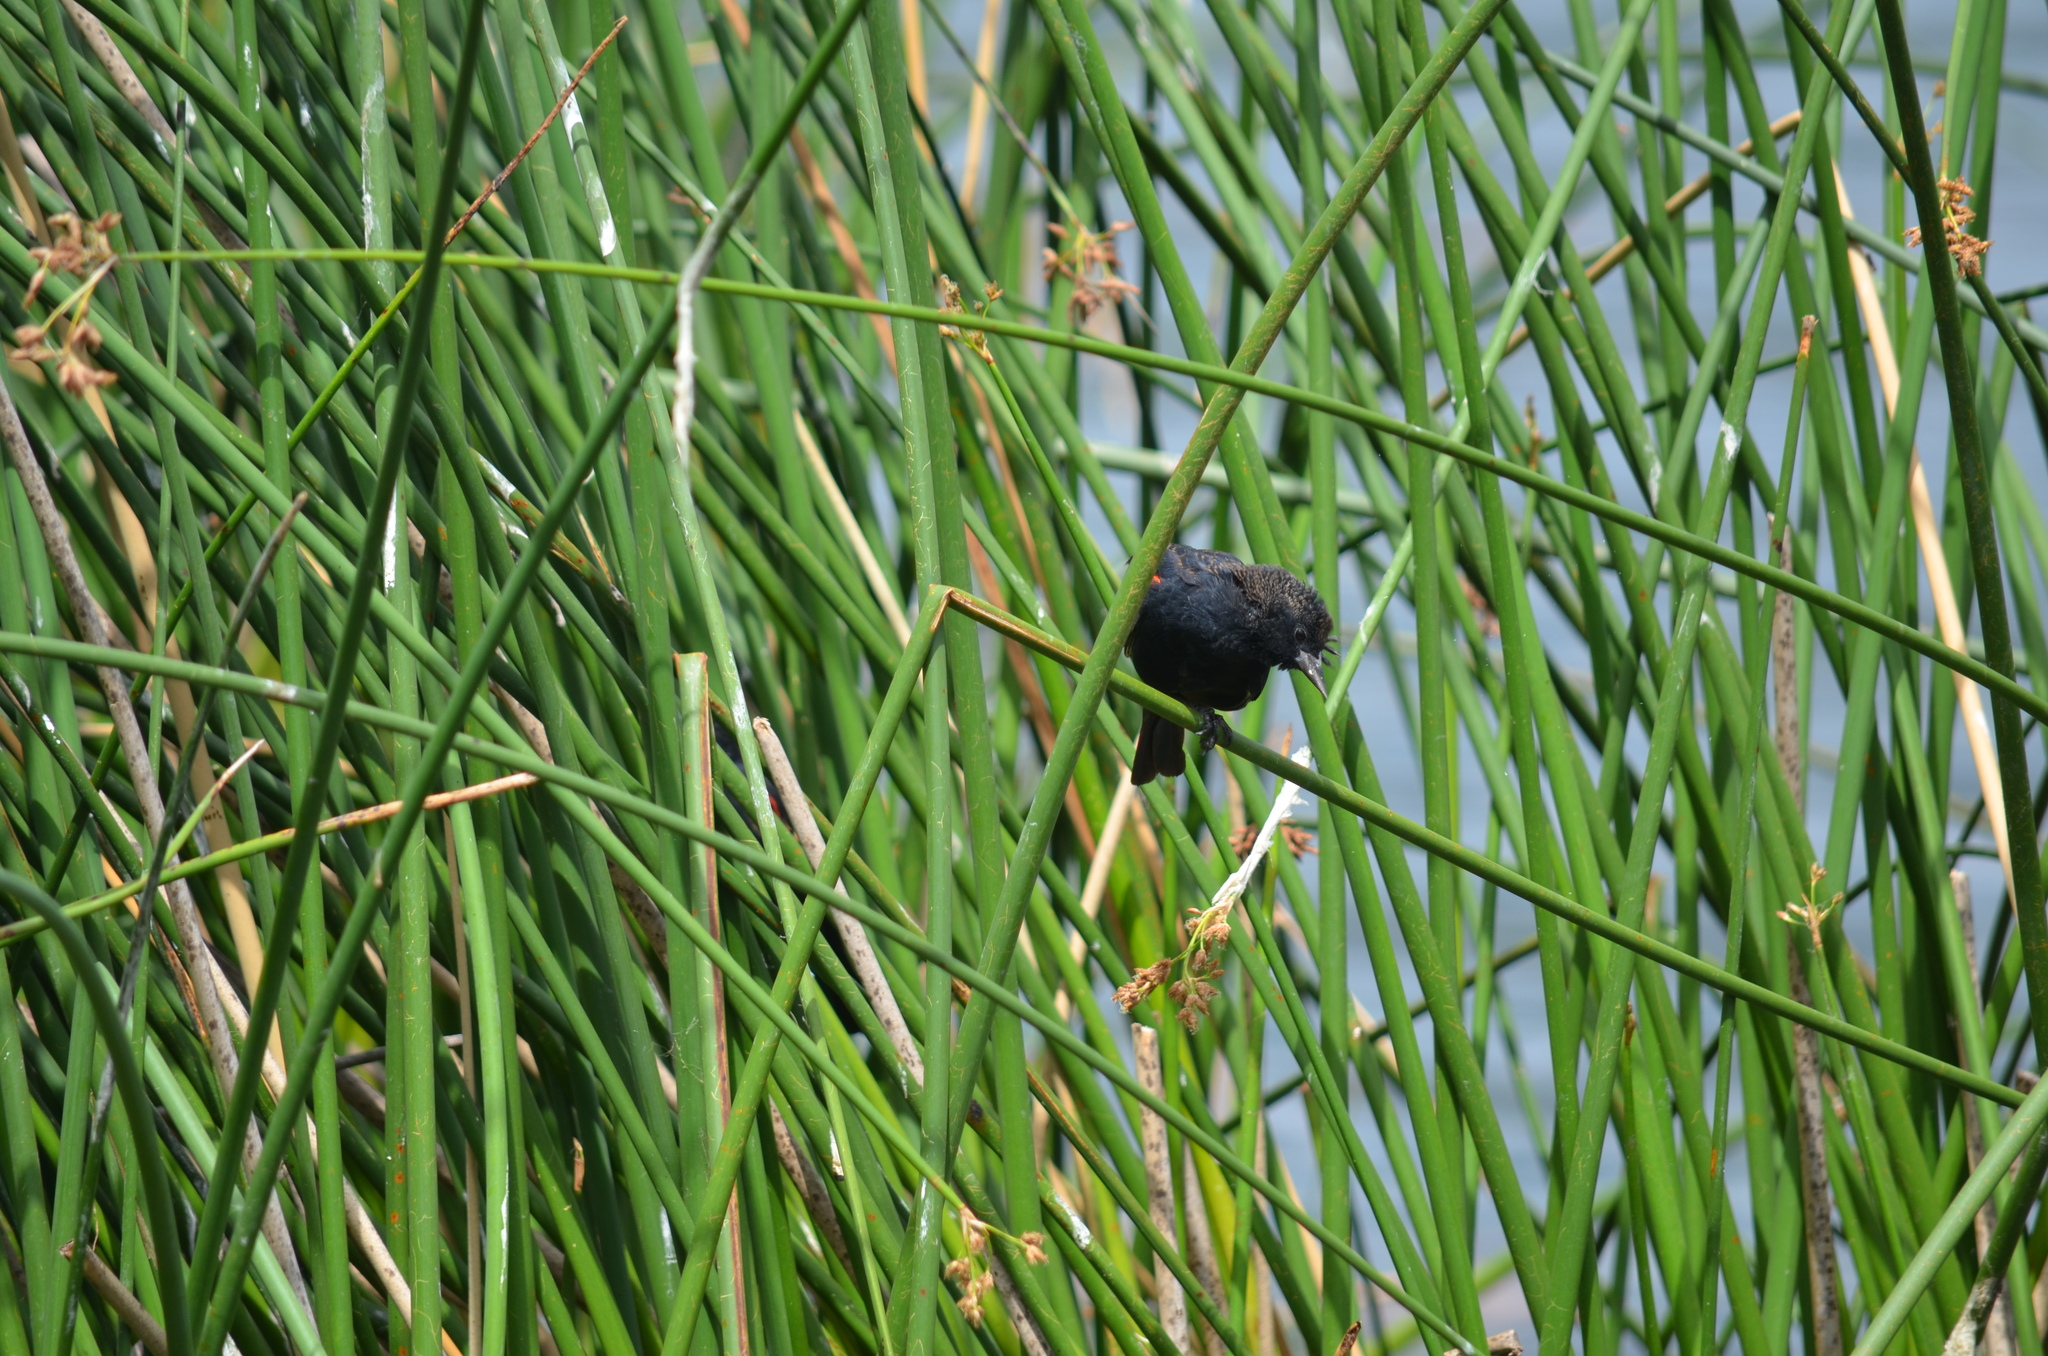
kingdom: Animalia
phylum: Chordata
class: Aves
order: Passeriformes
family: Icteridae
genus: Agelaius
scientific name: Agelaius phoeniceus
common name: Red-winged blackbird
